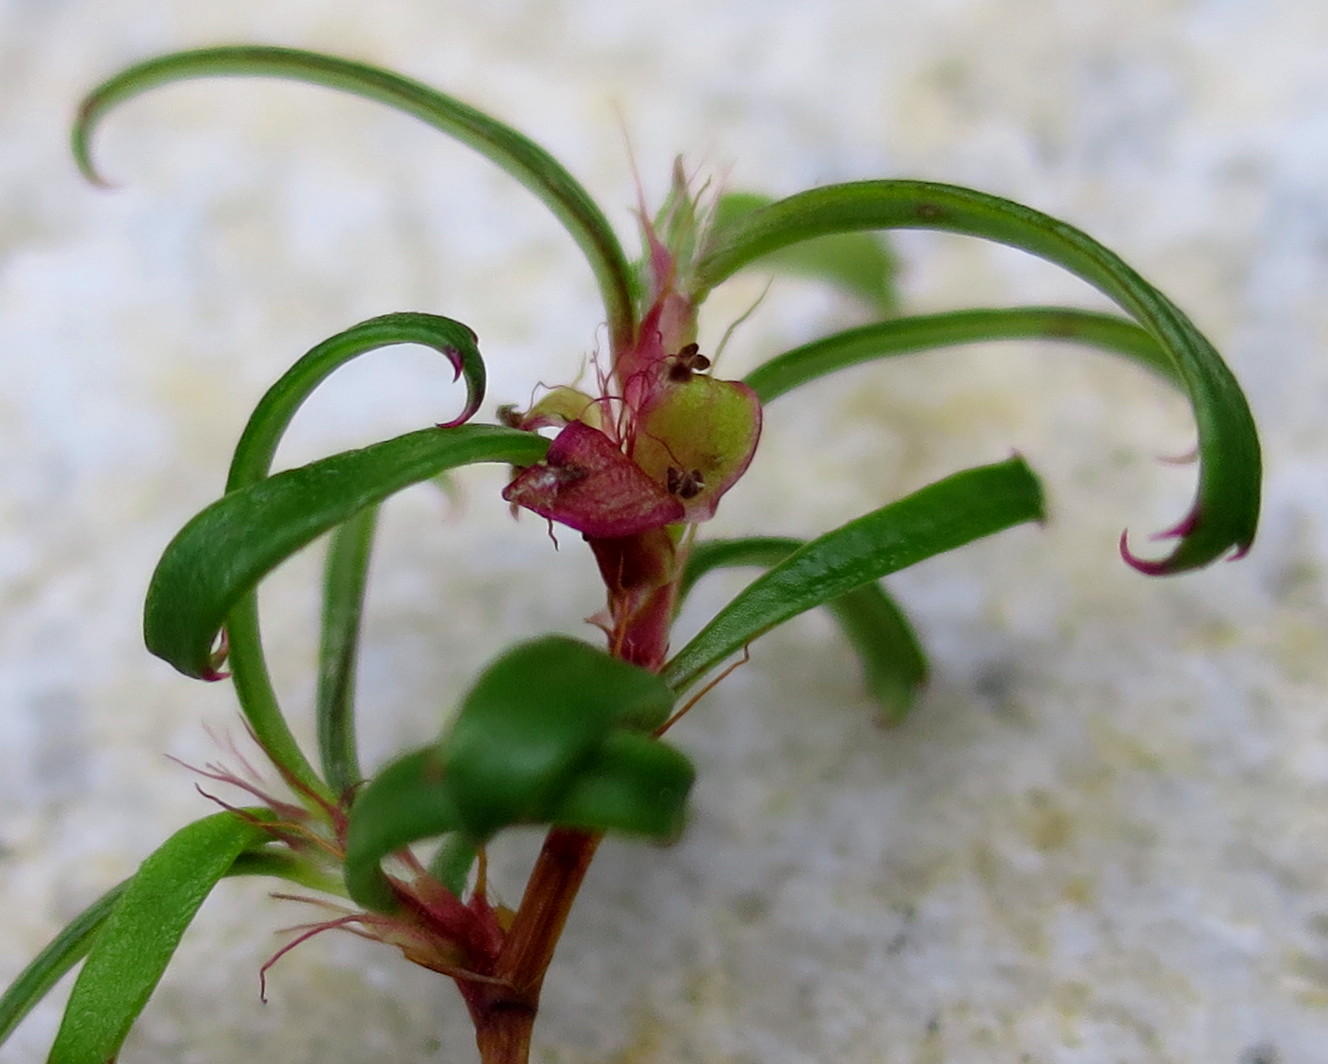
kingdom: Plantae
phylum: Tracheophyta
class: Magnoliopsida
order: Rosales
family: Rosaceae
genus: Cliffortia
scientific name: Cliffortia ferruginea
